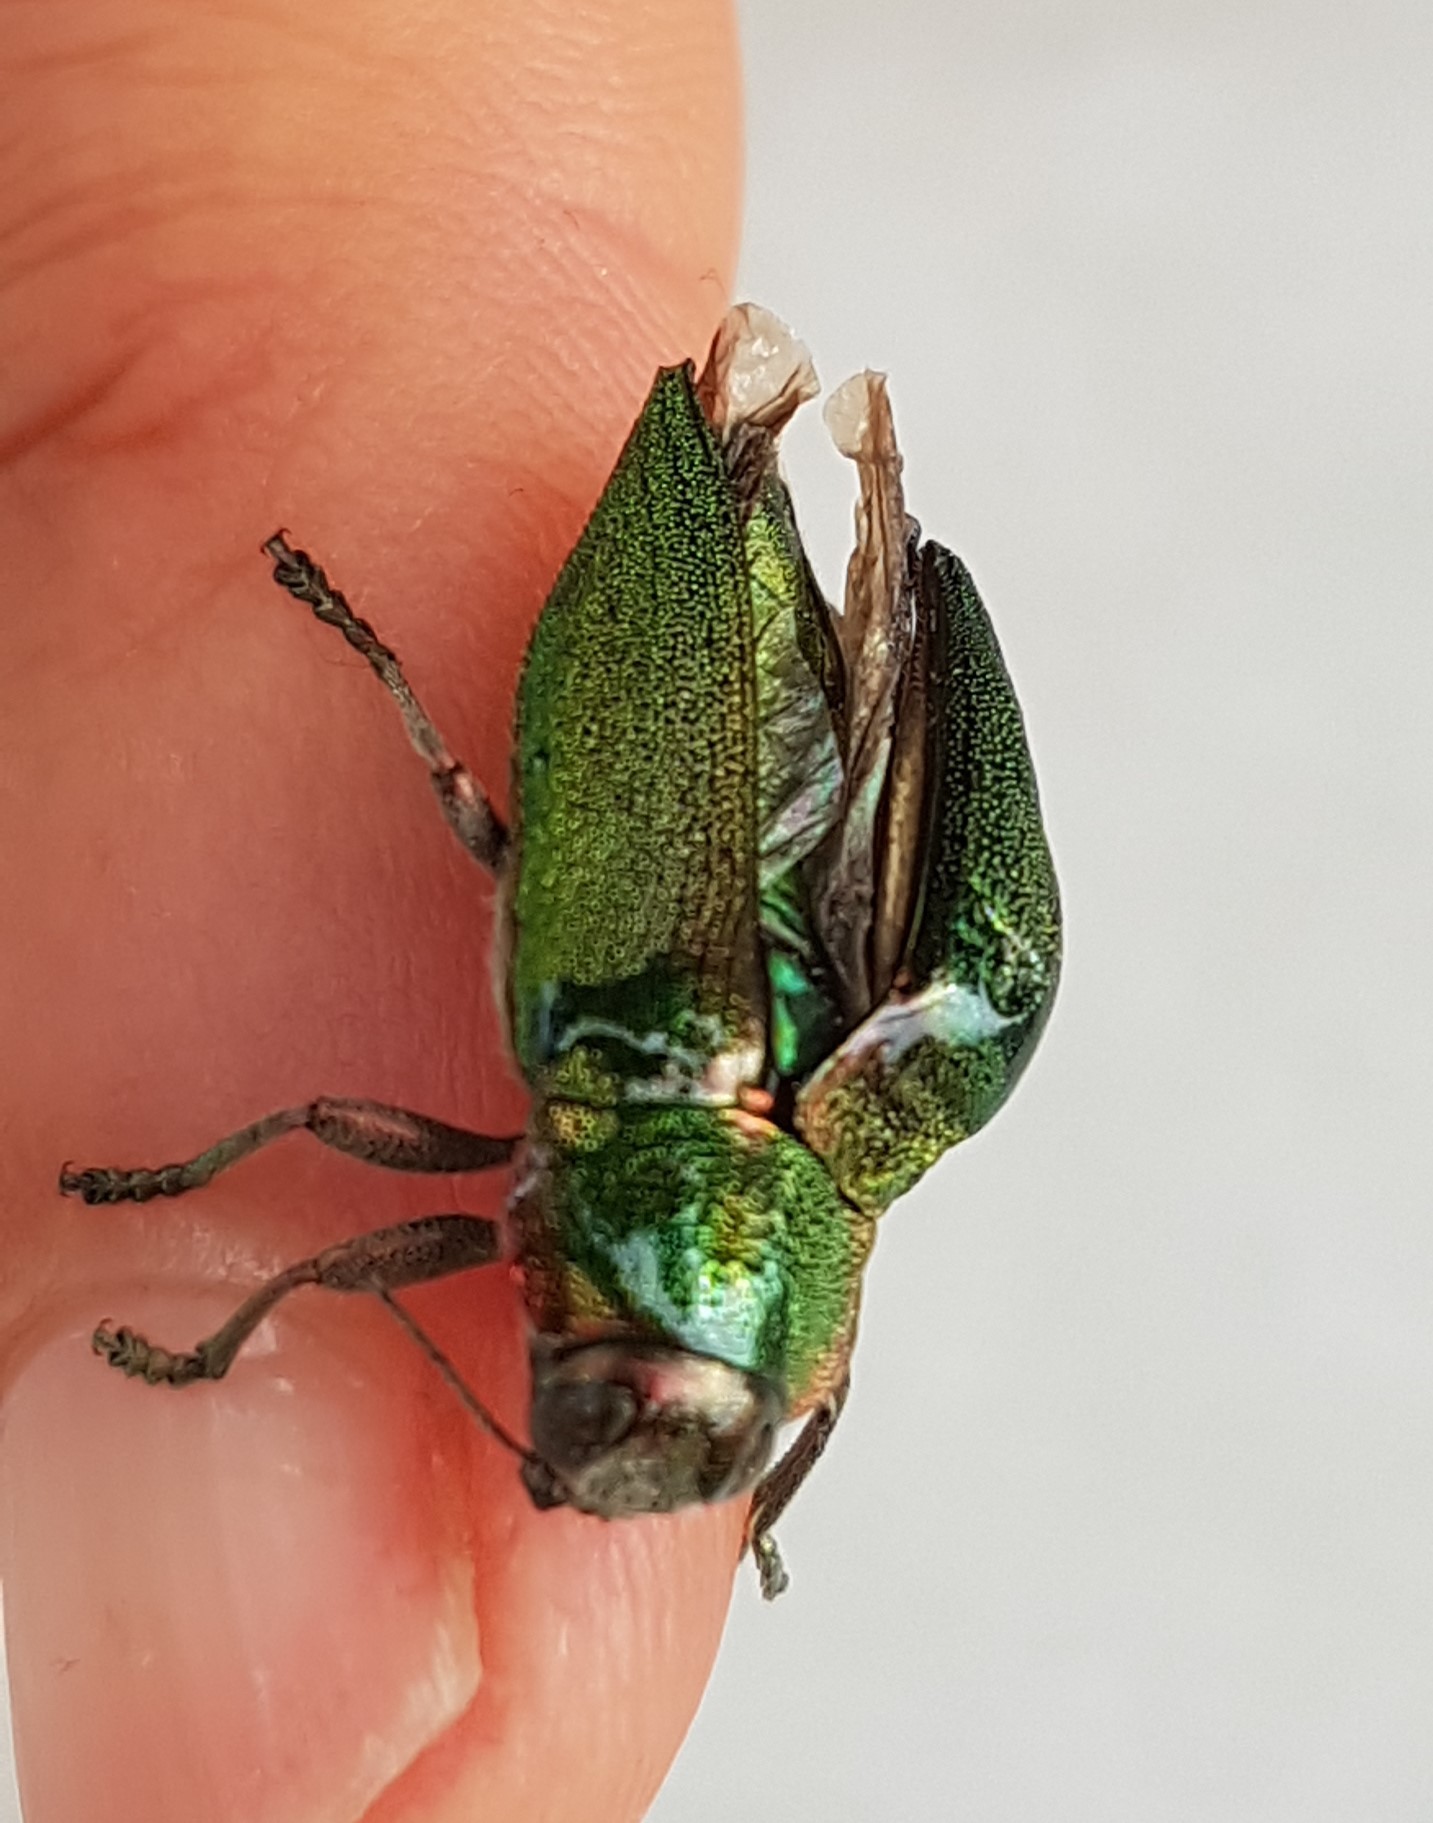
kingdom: Animalia
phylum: Arthropoda
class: Insecta
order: Coleoptera
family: Buprestidae
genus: Latipalpis
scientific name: Latipalpis plana
